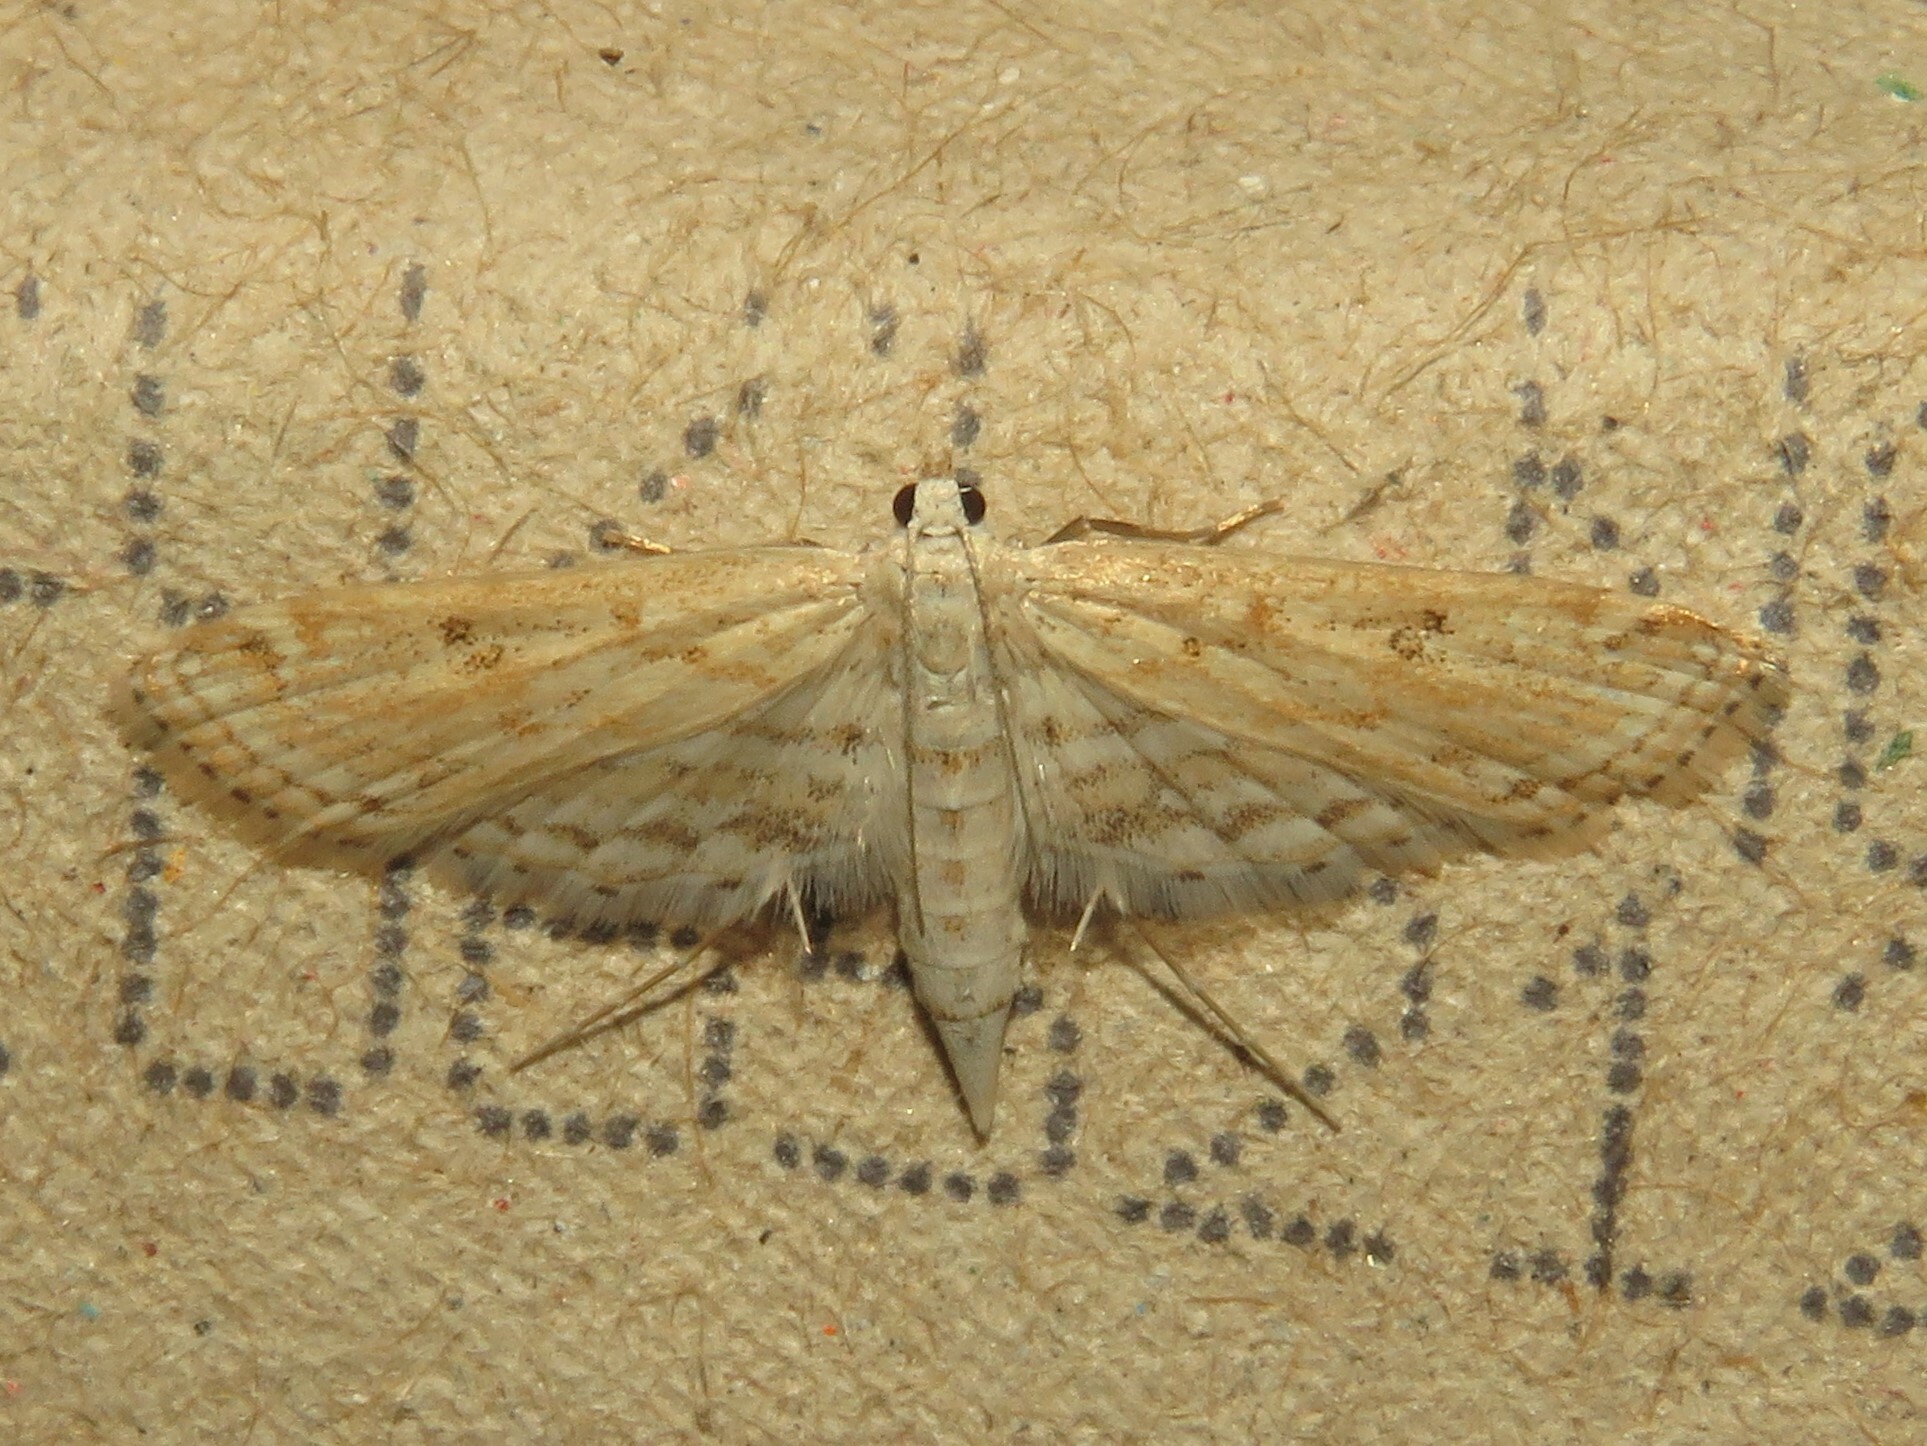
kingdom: Animalia
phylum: Arthropoda
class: Insecta
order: Lepidoptera
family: Crambidae
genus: Parapoynx
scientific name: Parapoynx allionealis
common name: Bladderwort casemaker
